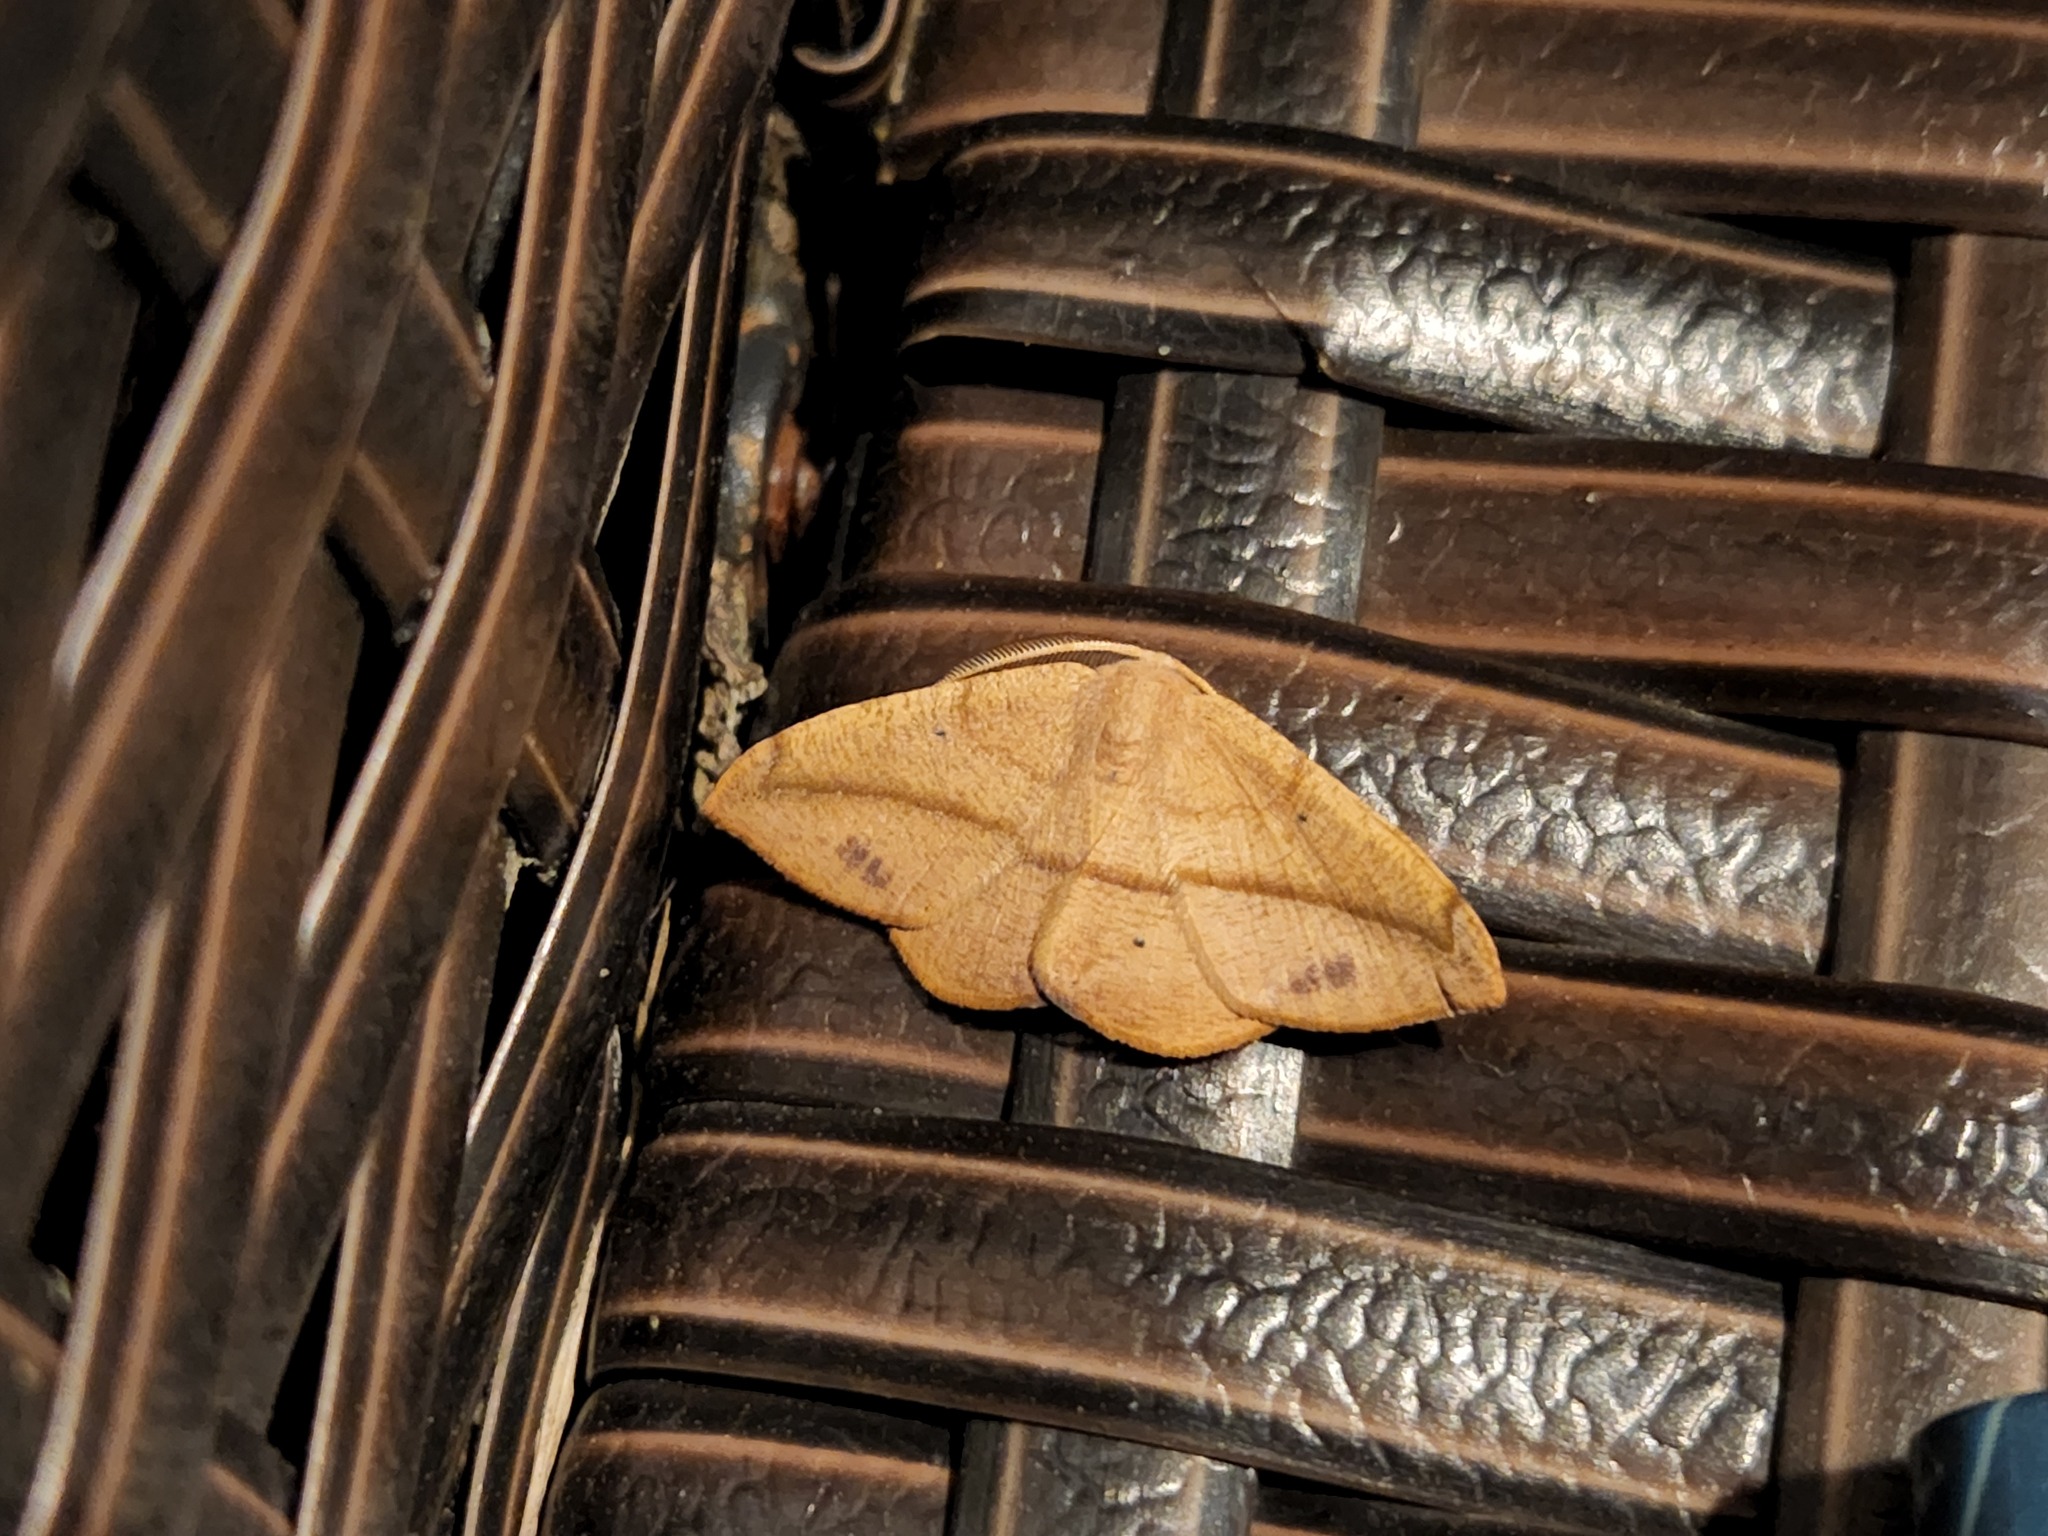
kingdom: Animalia
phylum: Arthropoda
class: Insecta
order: Lepidoptera
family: Geometridae
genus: Patalene
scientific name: Patalene olyzonaria
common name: Juniper geometer moth
